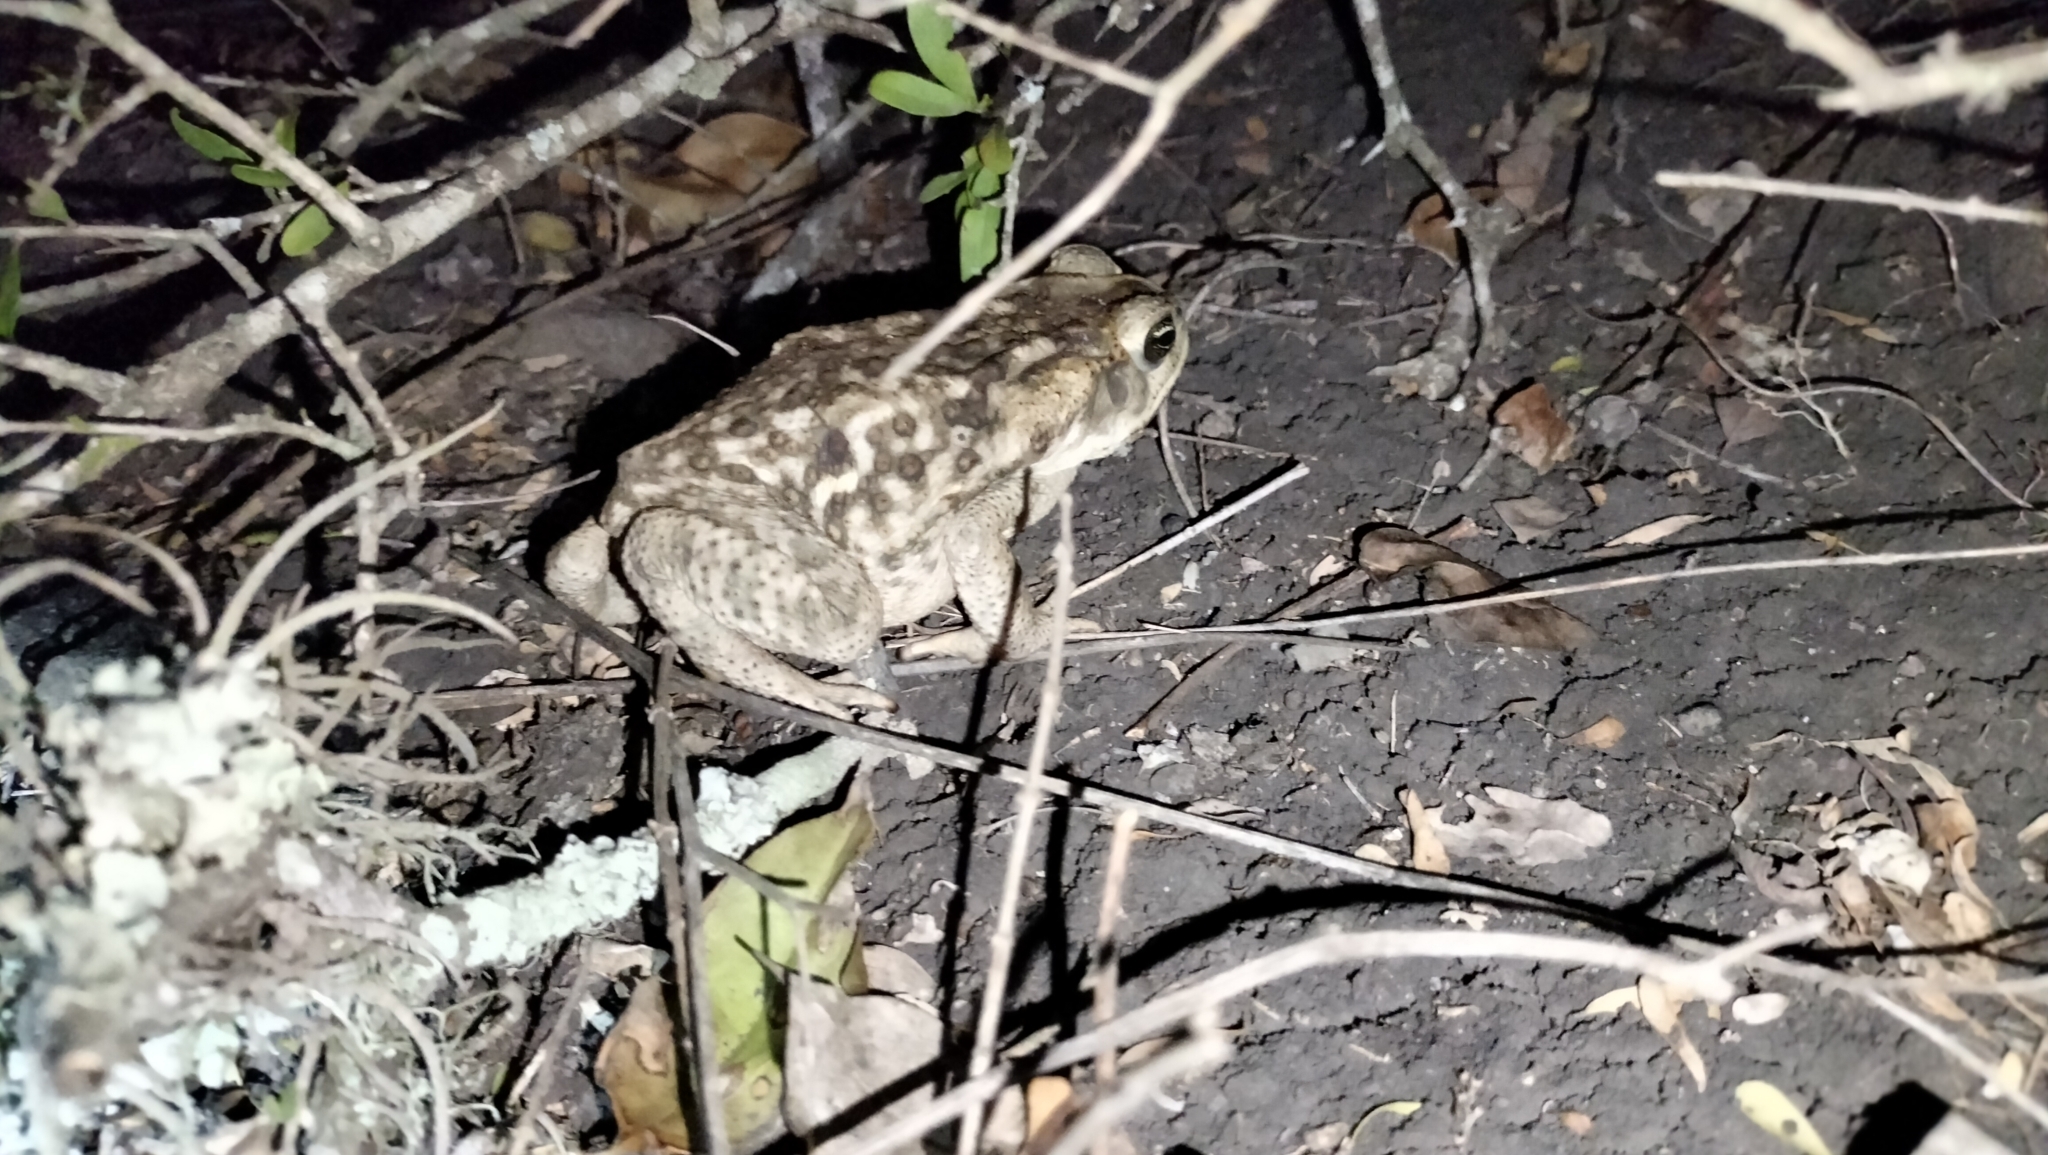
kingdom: Animalia
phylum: Chordata
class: Amphibia
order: Anura
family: Bufonidae
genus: Rhinella
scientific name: Rhinella horribilis
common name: Mesoamerican cane toad
